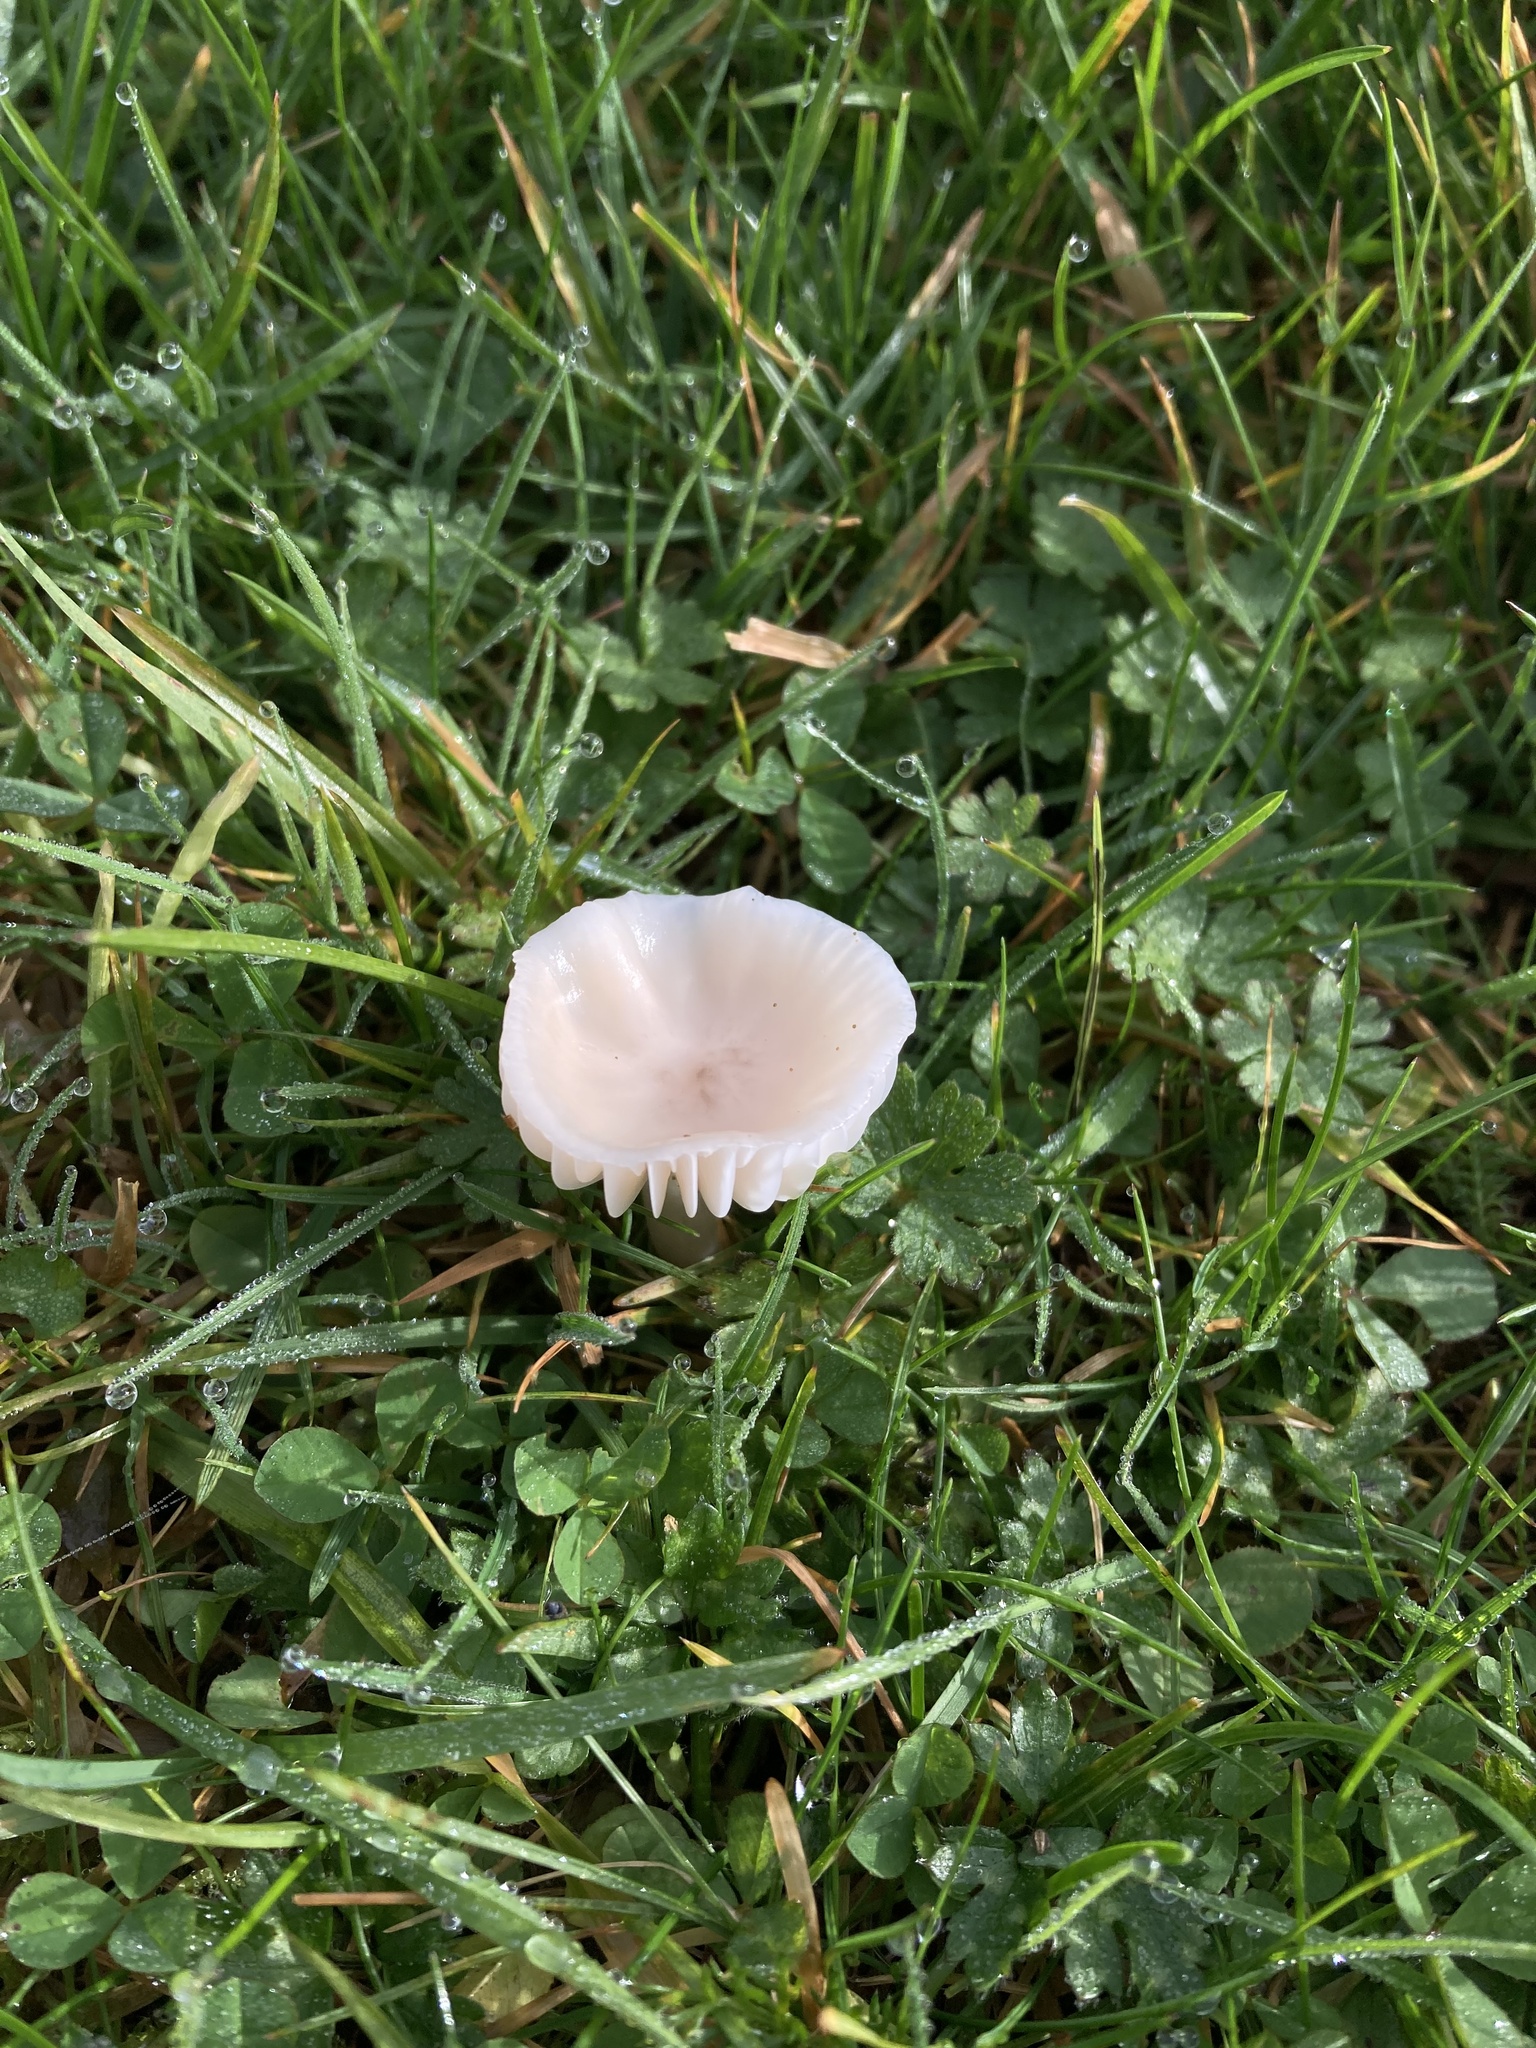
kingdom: Fungi
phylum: Basidiomycota
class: Agaricomycetes
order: Agaricales
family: Hygrophoraceae
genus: Cuphophyllus
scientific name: Cuphophyllus virgineus
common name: Snowy waxcap
